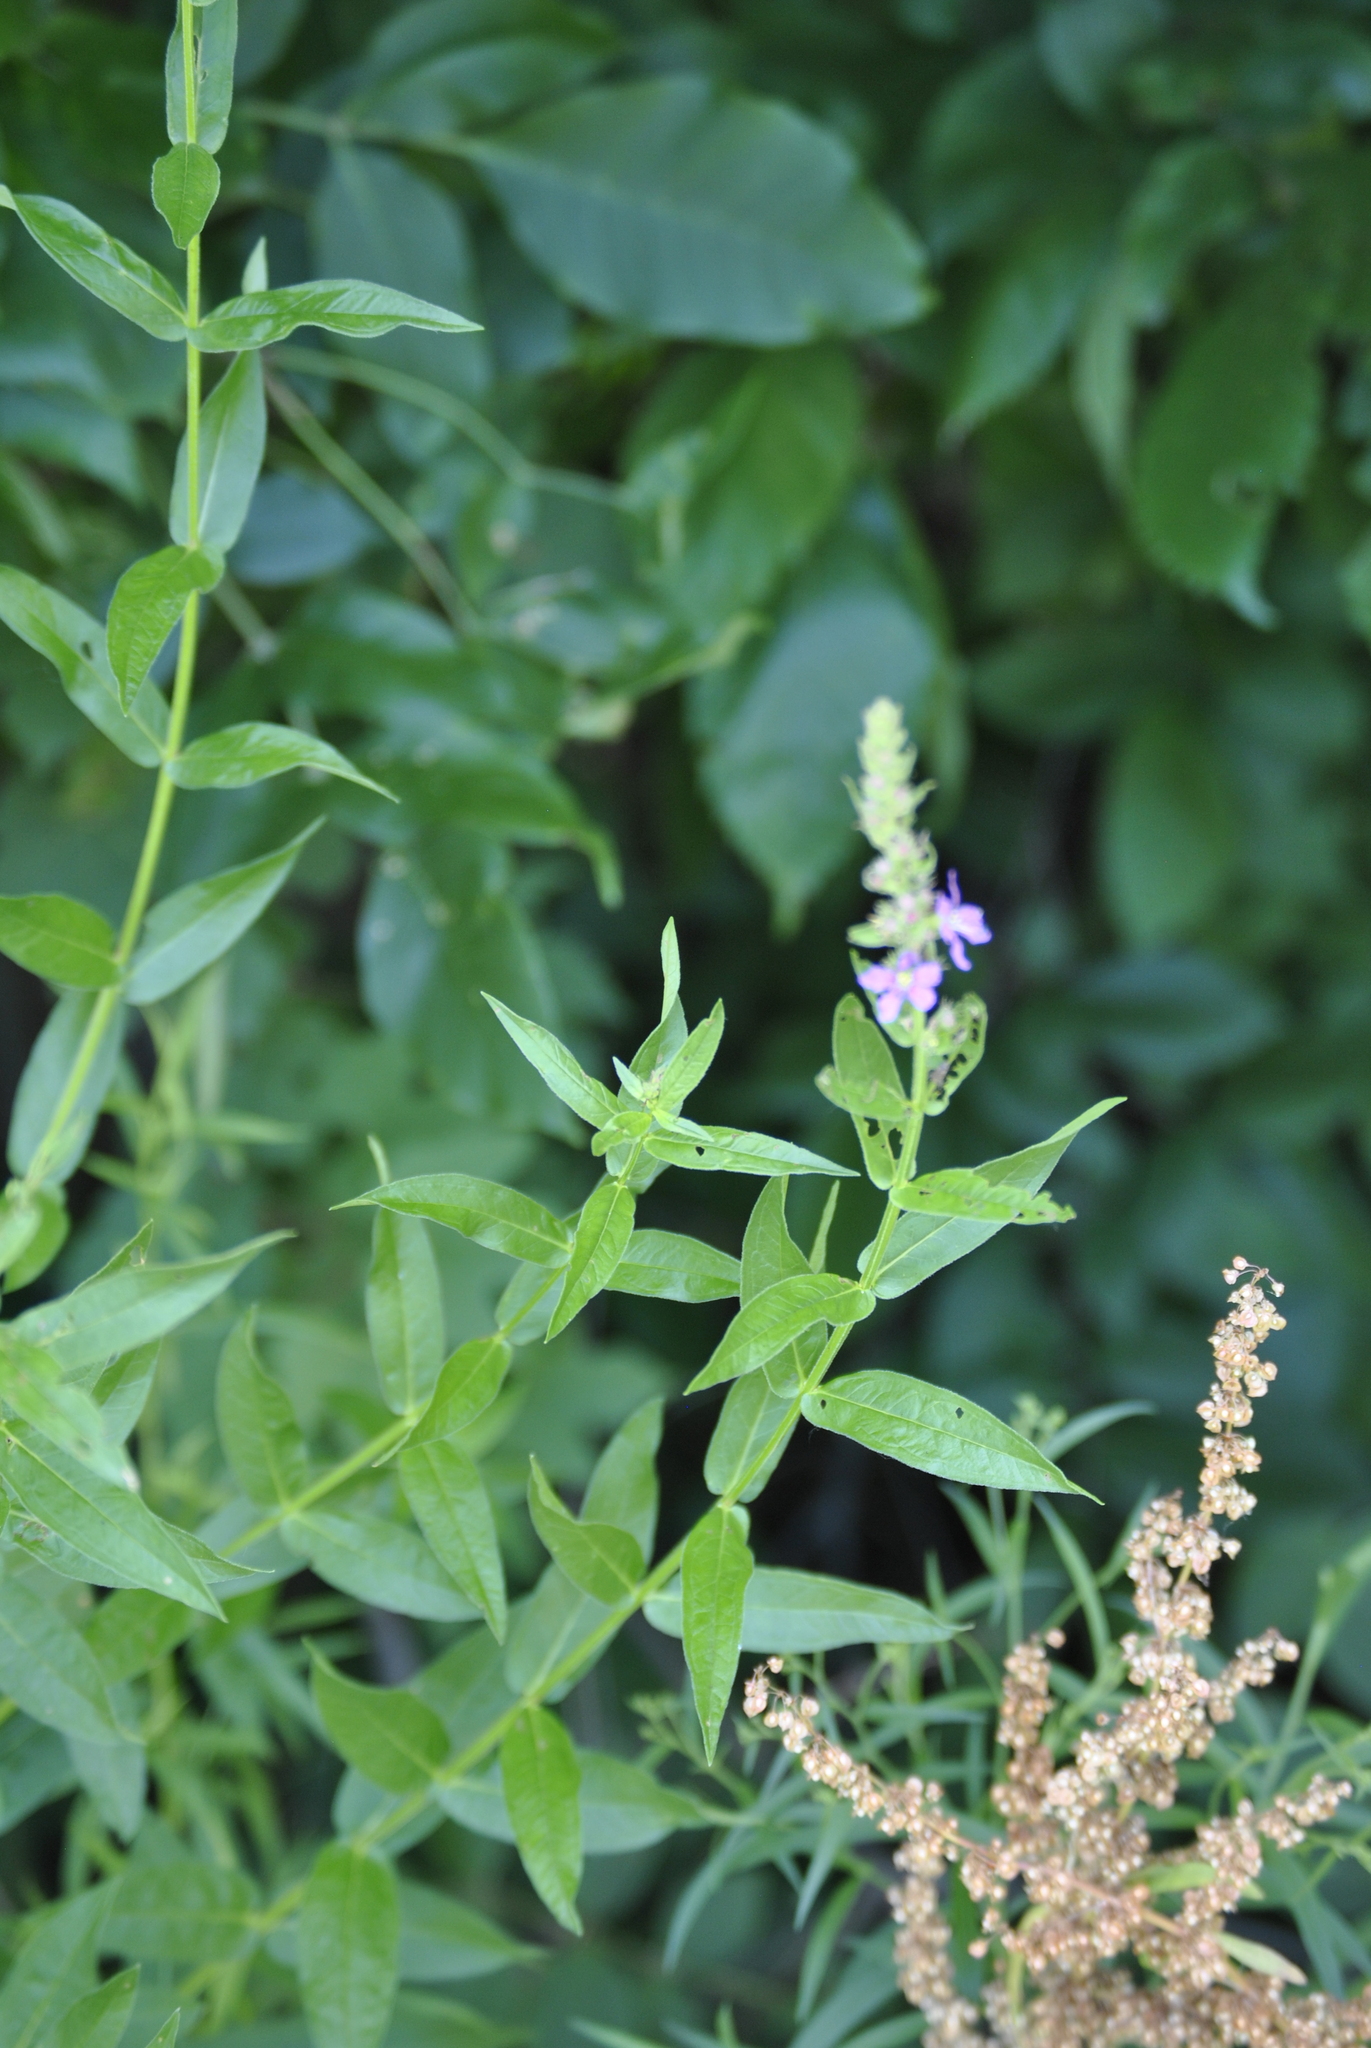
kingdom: Plantae
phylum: Tracheophyta
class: Magnoliopsida
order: Myrtales
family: Lythraceae
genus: Lythrum
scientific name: Lythrum salicaria
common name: Purple loosestrife
